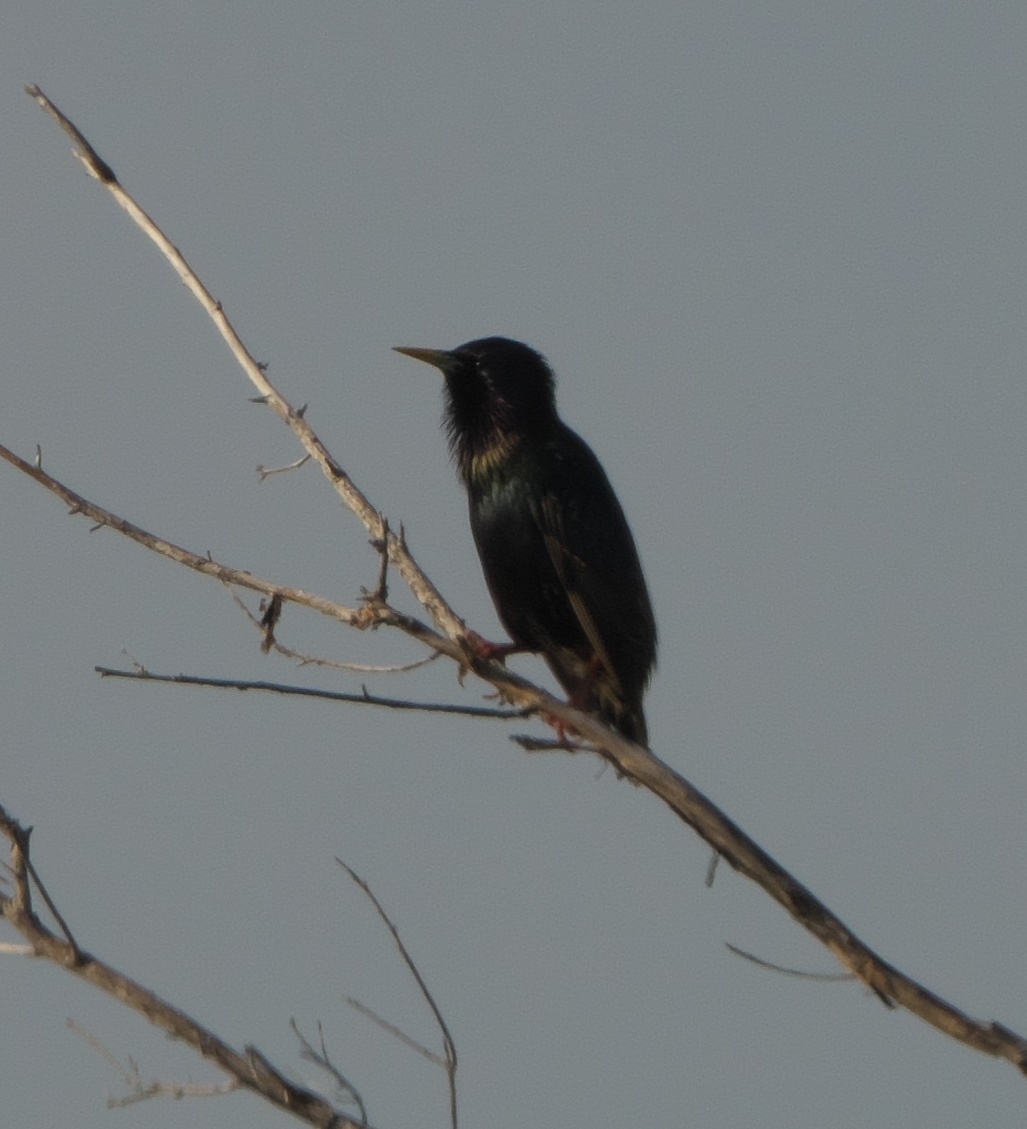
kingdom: Animalia
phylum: Chordata
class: Aves
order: Passeriformes
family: Sturnidae
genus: Sturnus
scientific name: Sturnus vulgaris
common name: Common starling
